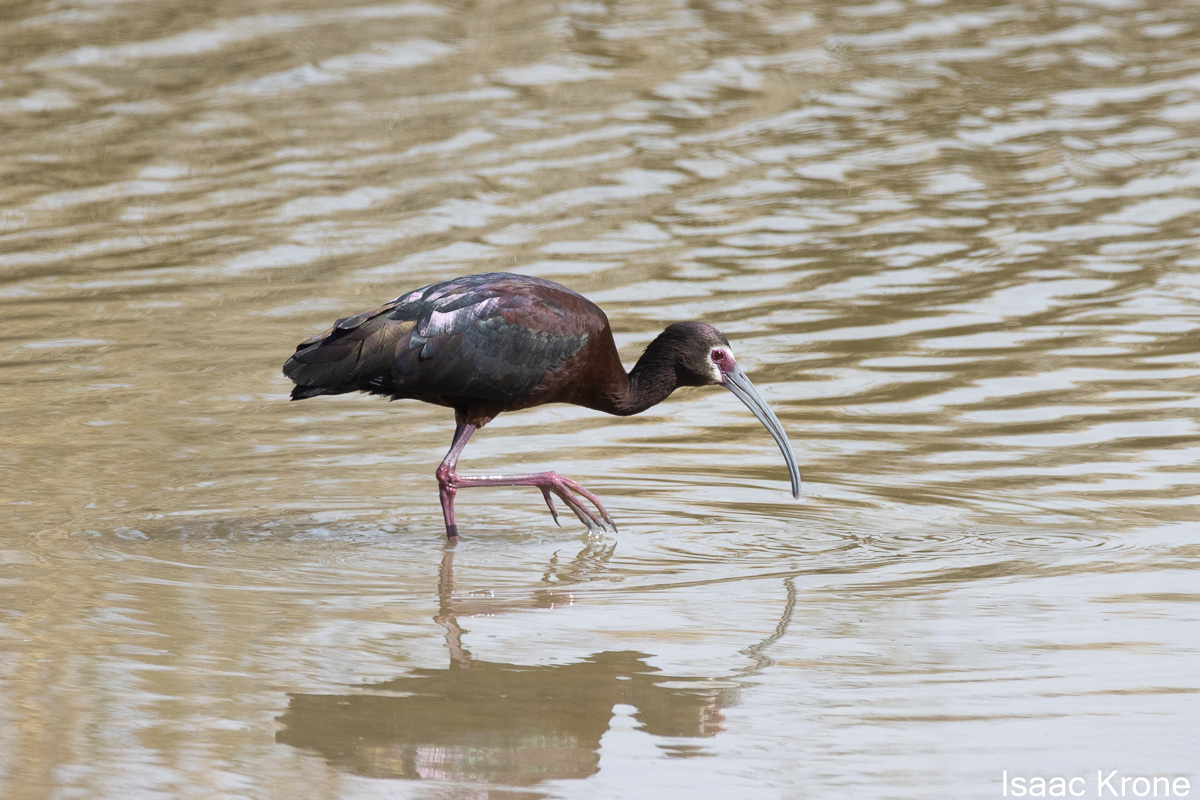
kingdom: Animalia
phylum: Chordata
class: Aves
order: Pelecaniformes
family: Threskiornithidae
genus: Plegadis
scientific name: Plegadis chihi
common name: White-faced ibis
